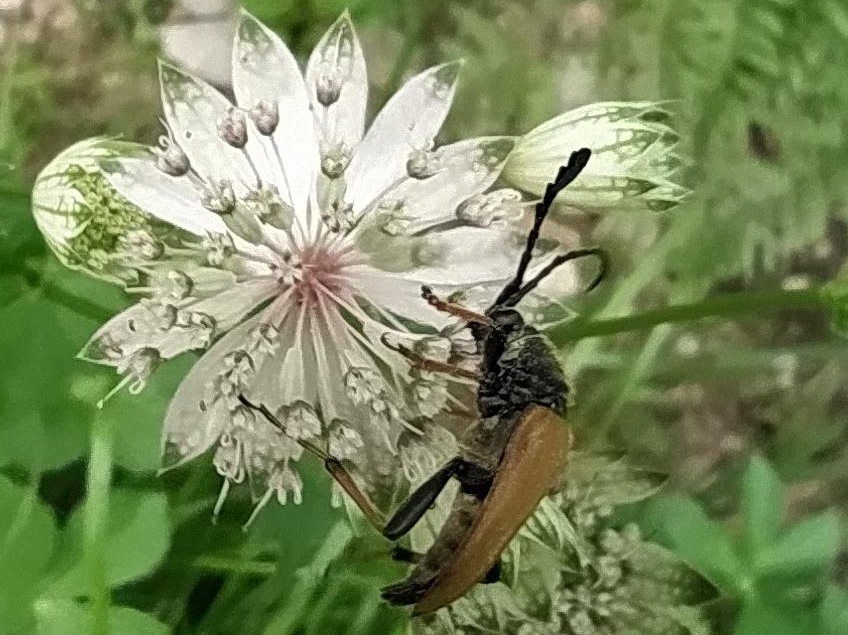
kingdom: Animalia
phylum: Arthropoda
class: Insecta
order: Coleoptera
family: Cerambycidae
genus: Stictoleptura
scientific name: Stictoleptura rubra
